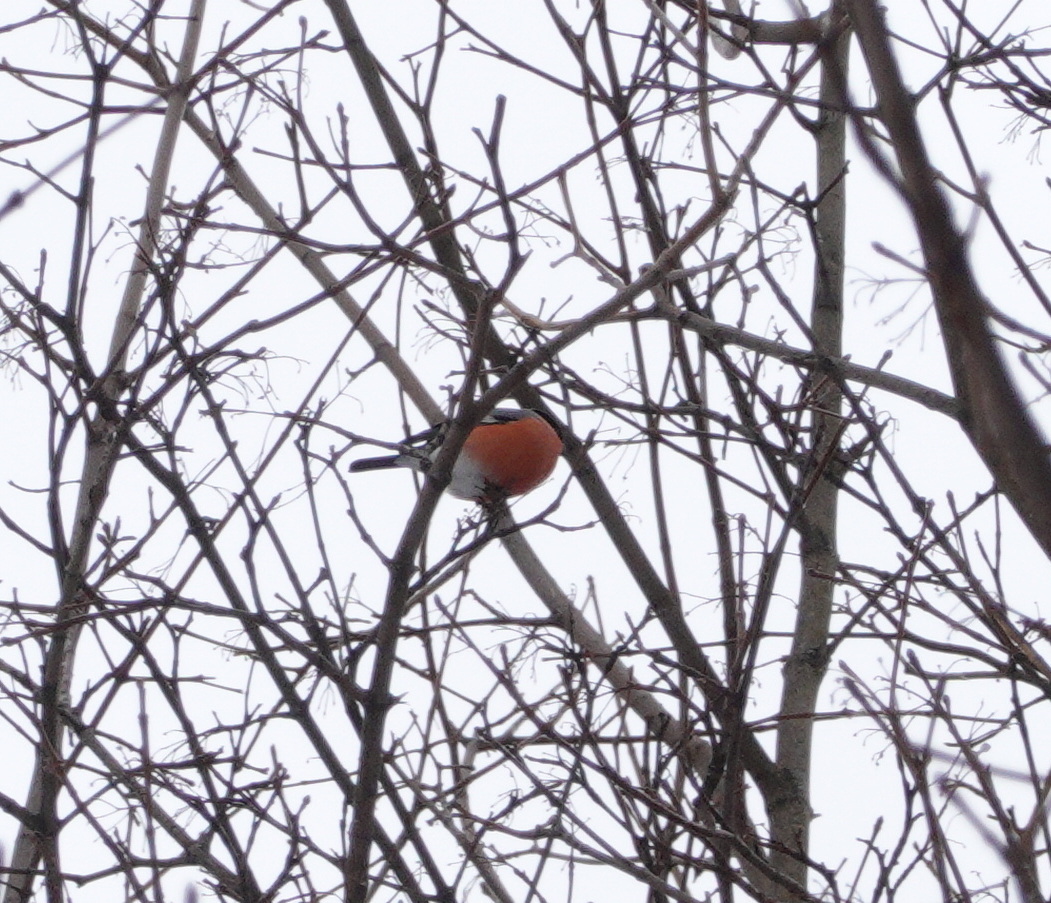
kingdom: Animalia
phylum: Chordata
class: Aves
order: Passeriformes
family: Fringillidae
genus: Pyrrhula
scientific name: Pyrrhula pyrrhula
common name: Eurasian bullfinch
